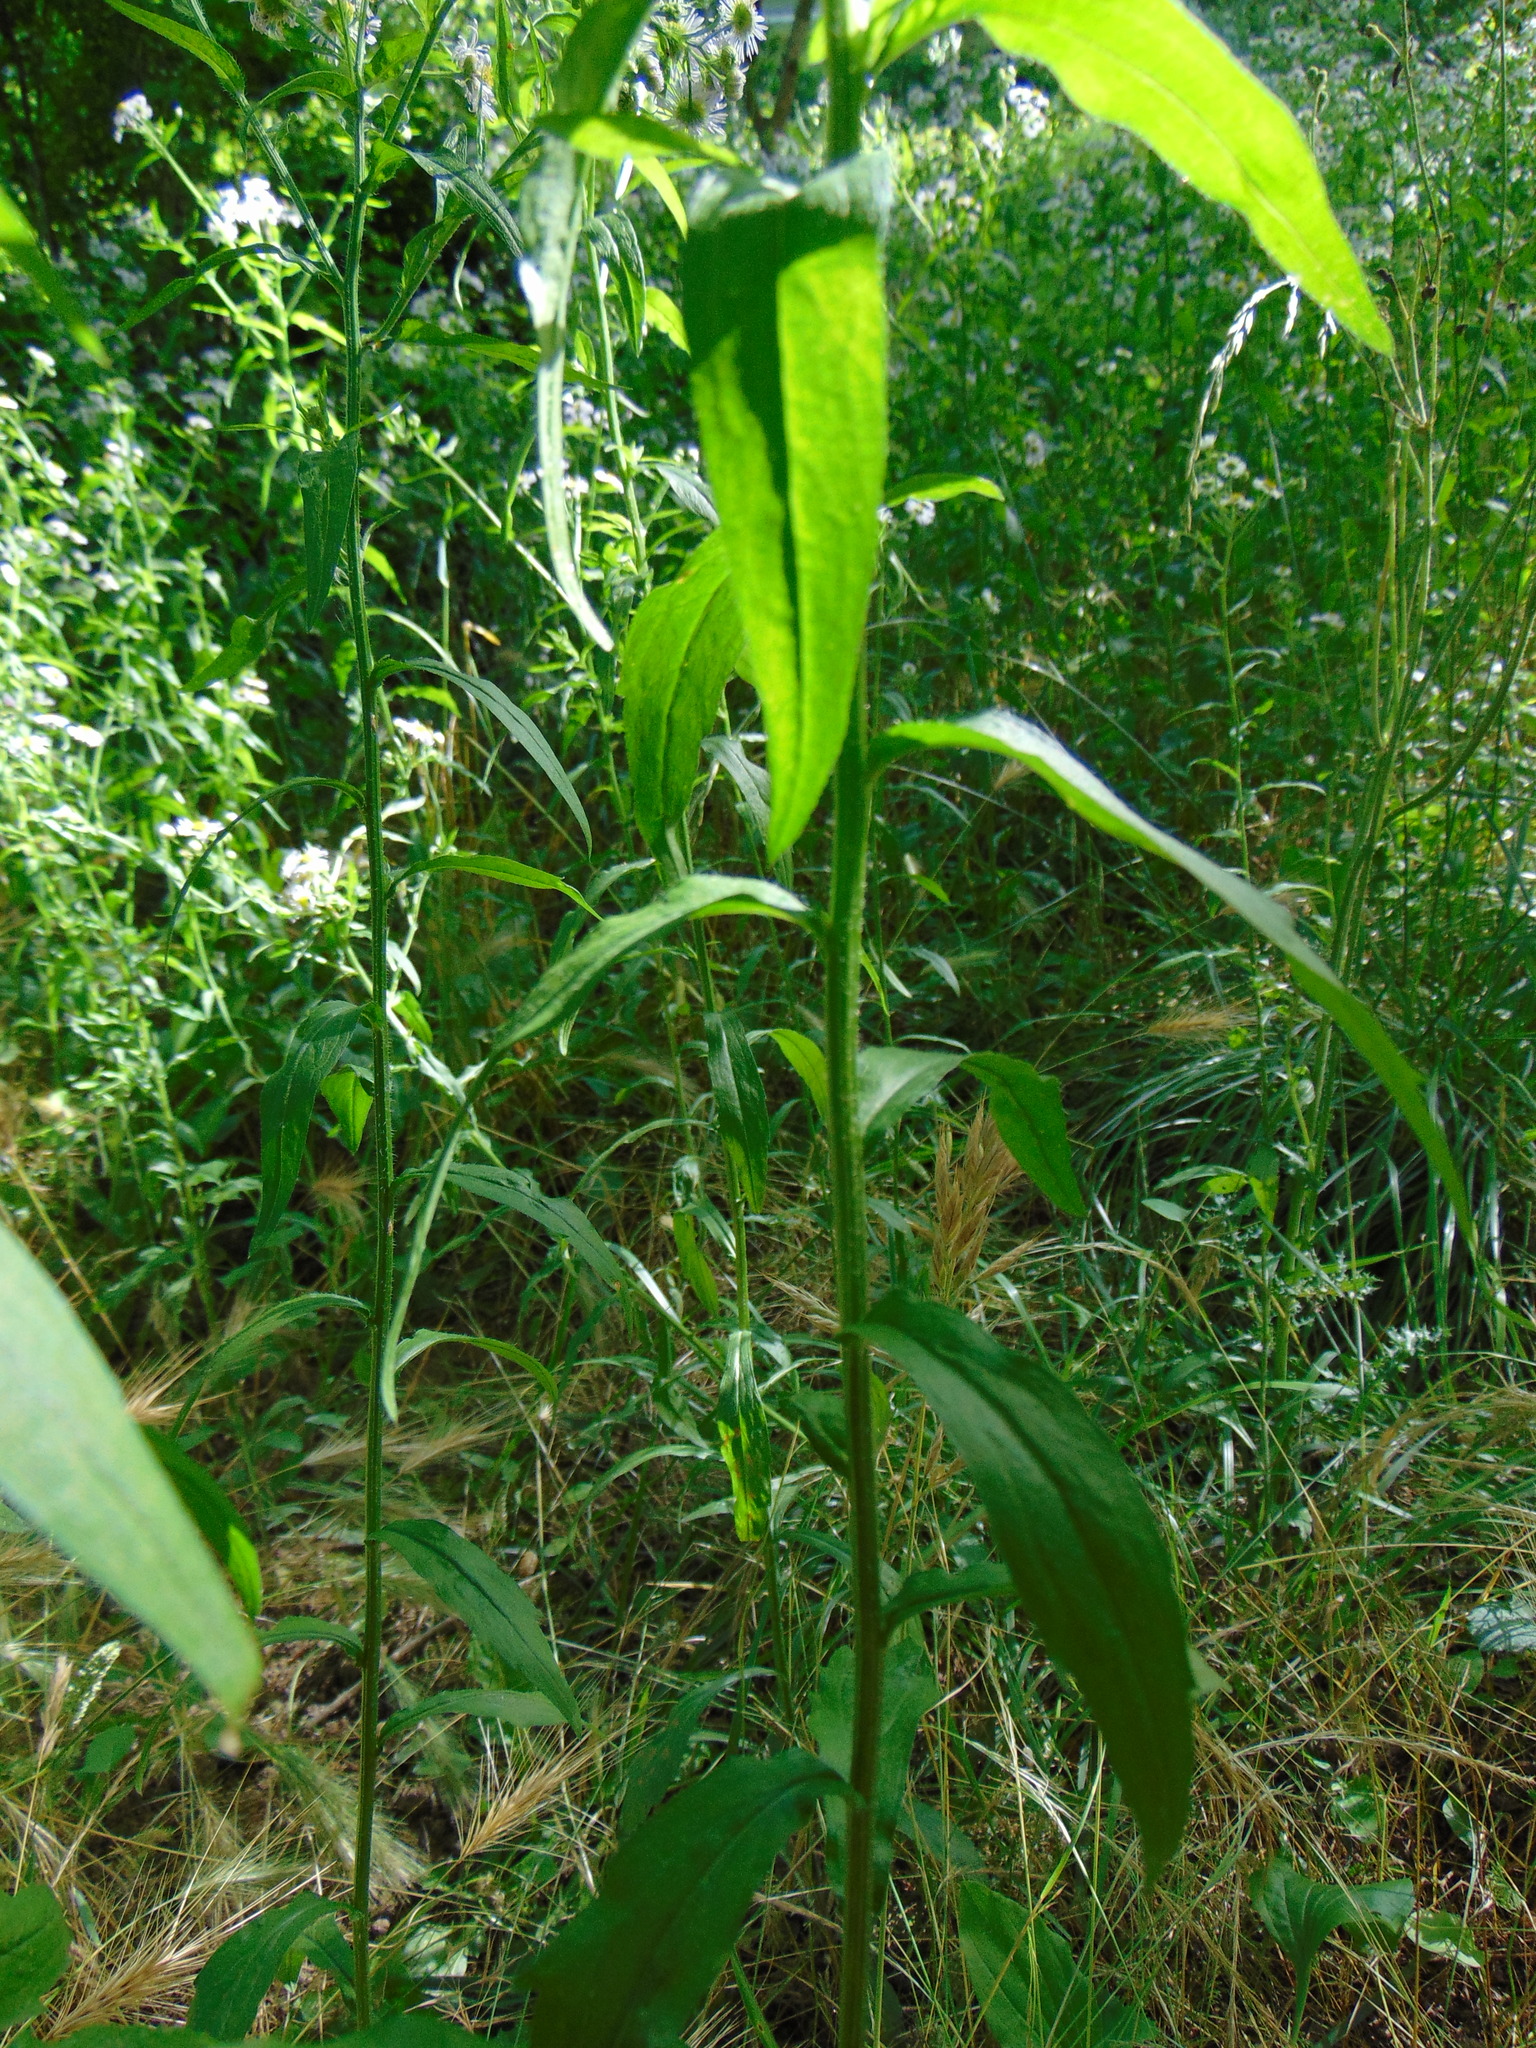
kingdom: Plantae
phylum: Tracheophyta
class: Magnoliopsida
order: Asterales
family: Asteraceae
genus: Erigeron
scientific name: Erigeron annuus
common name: Tall fleabane
